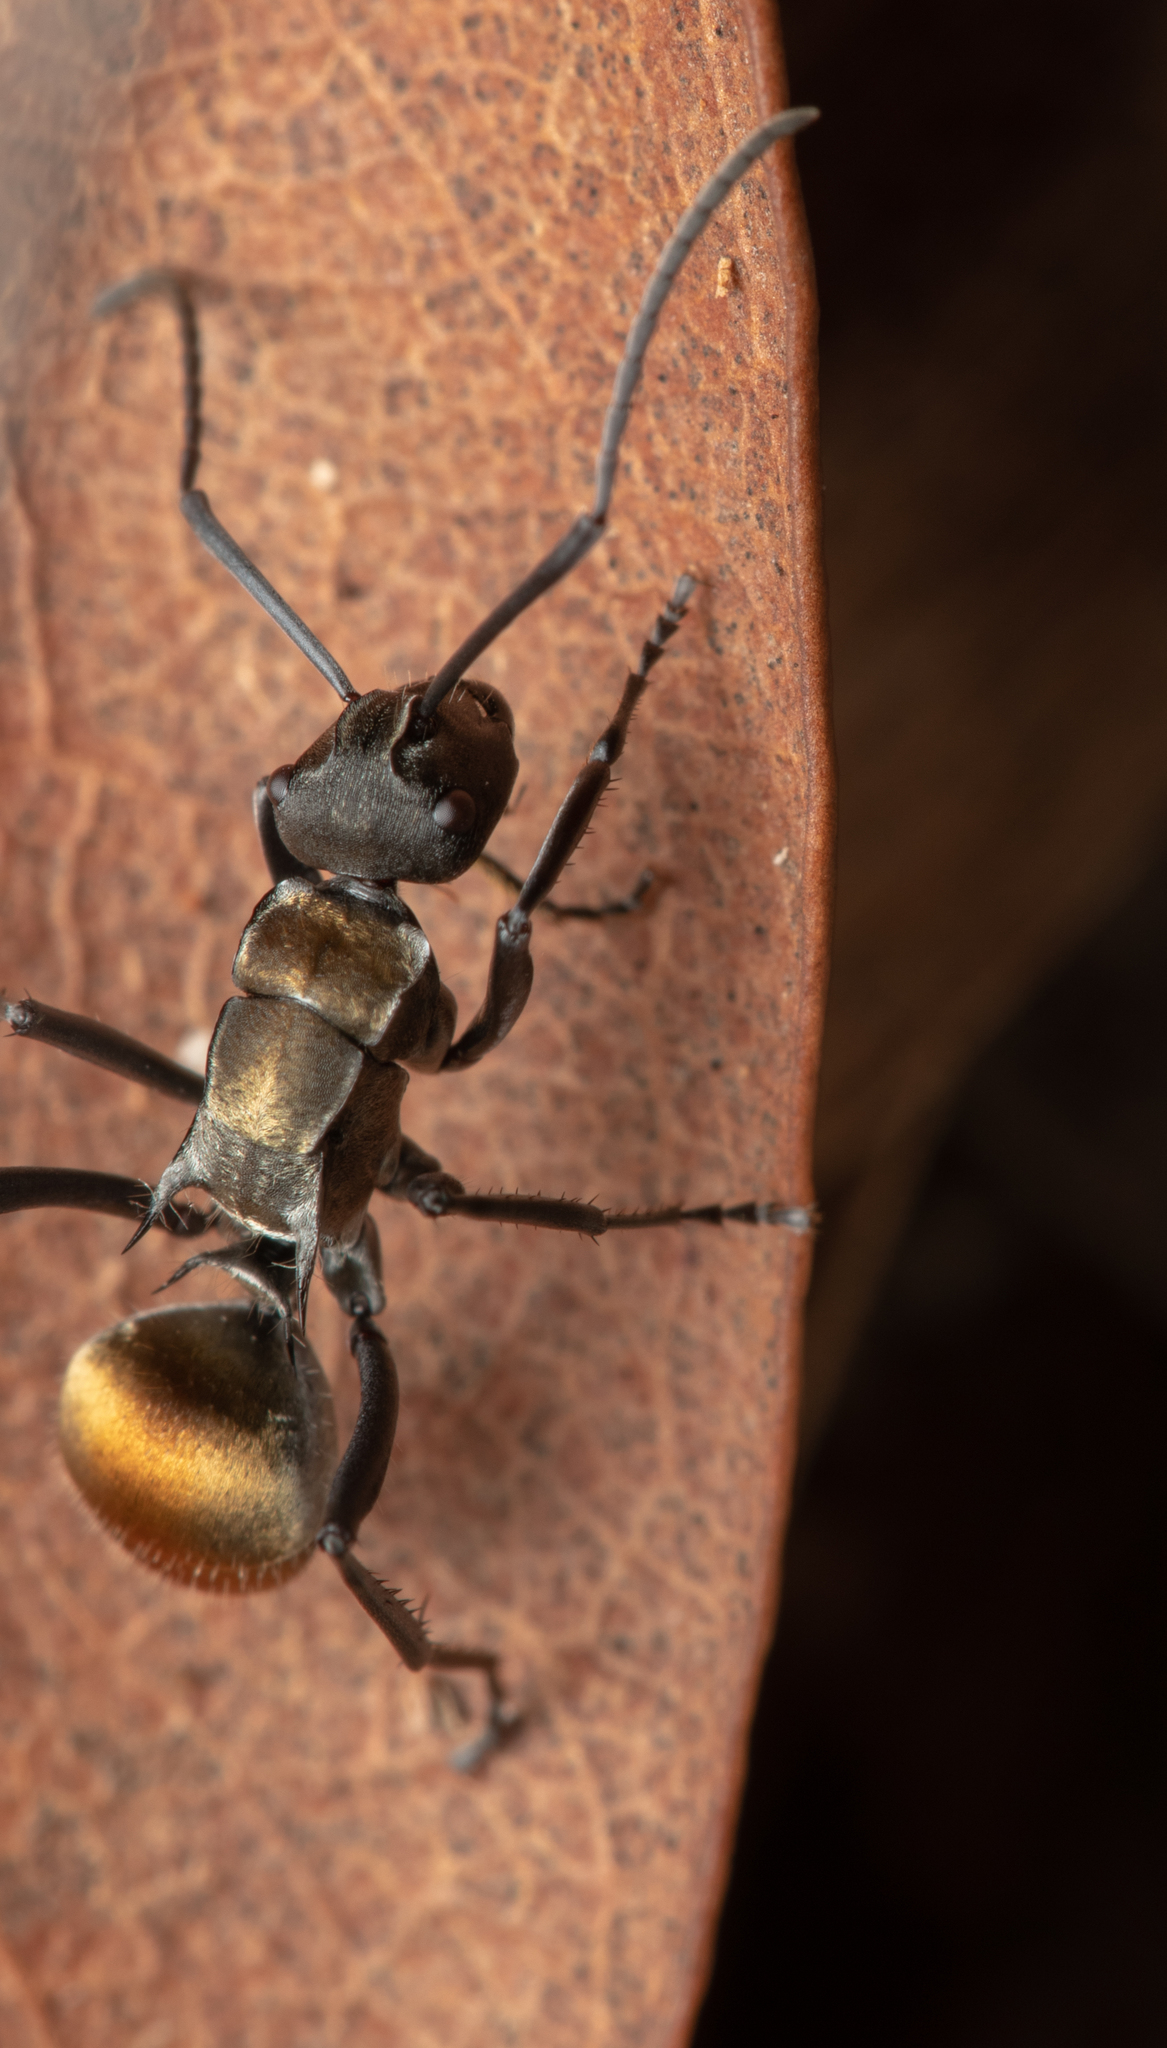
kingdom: Animalia
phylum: Arthropoda
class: Insecta
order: Hymenoptera
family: Formicidae
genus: Polyrhachis
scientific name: Polyrhachis ammon
